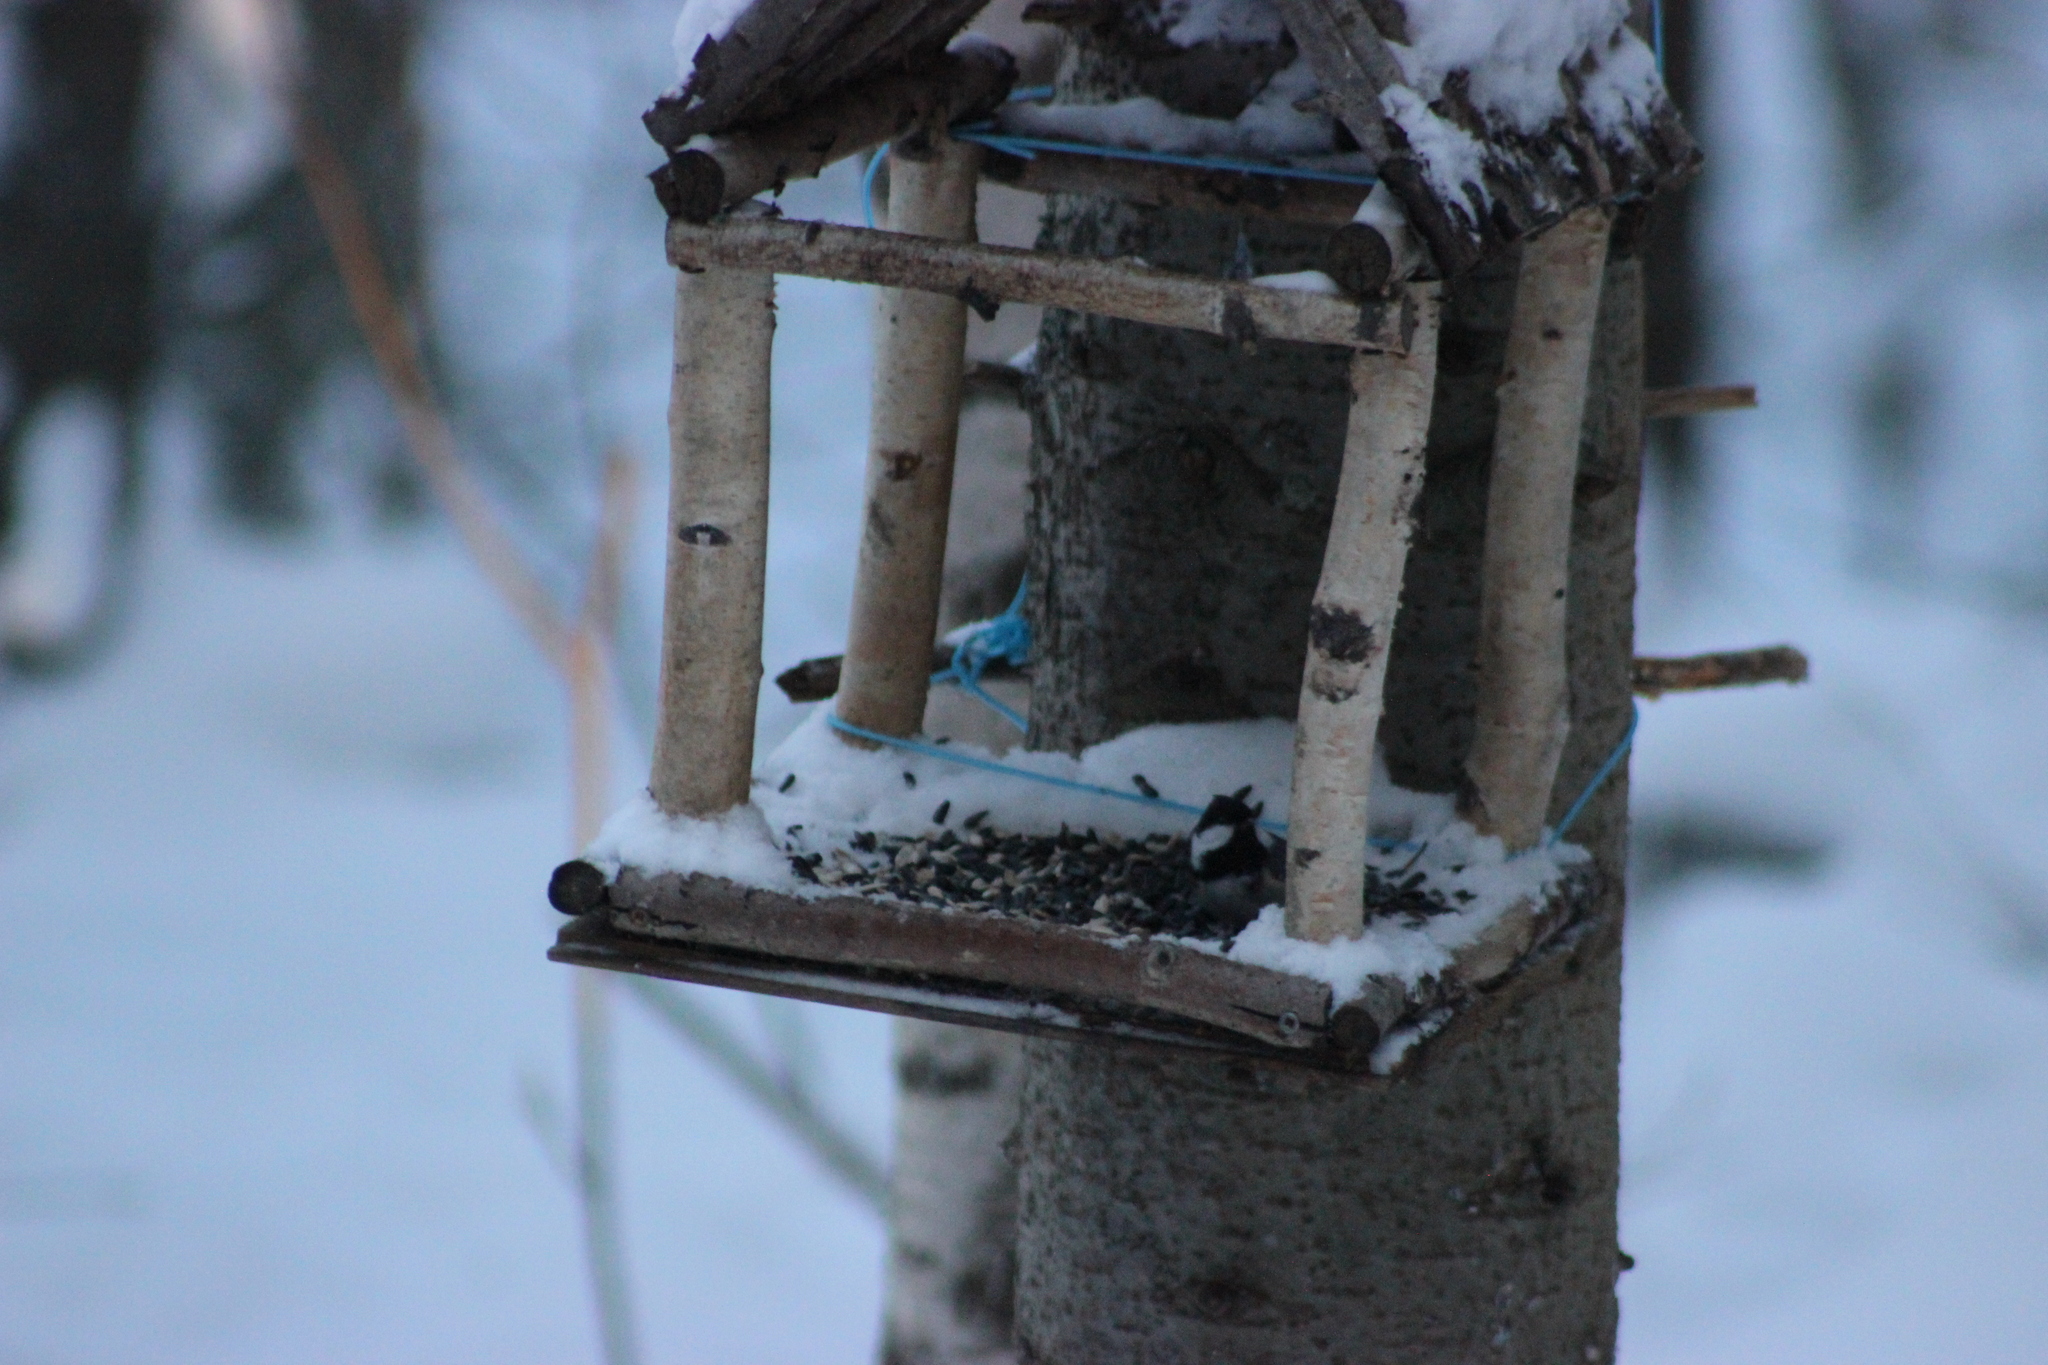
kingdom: Animalia
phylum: Chordata
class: Aves
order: Passeriformes
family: Paridae
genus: Periparus
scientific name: Periparus ater
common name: Coal tit
